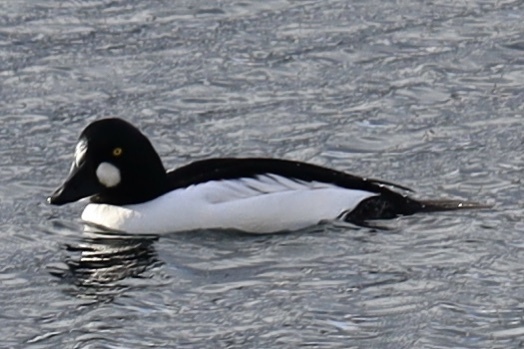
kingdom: Animalia
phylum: Chordata
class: Aves
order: Anseriformes
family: Anatidae
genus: Bucephala
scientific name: Bucephala clangula
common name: Common goldeneye
